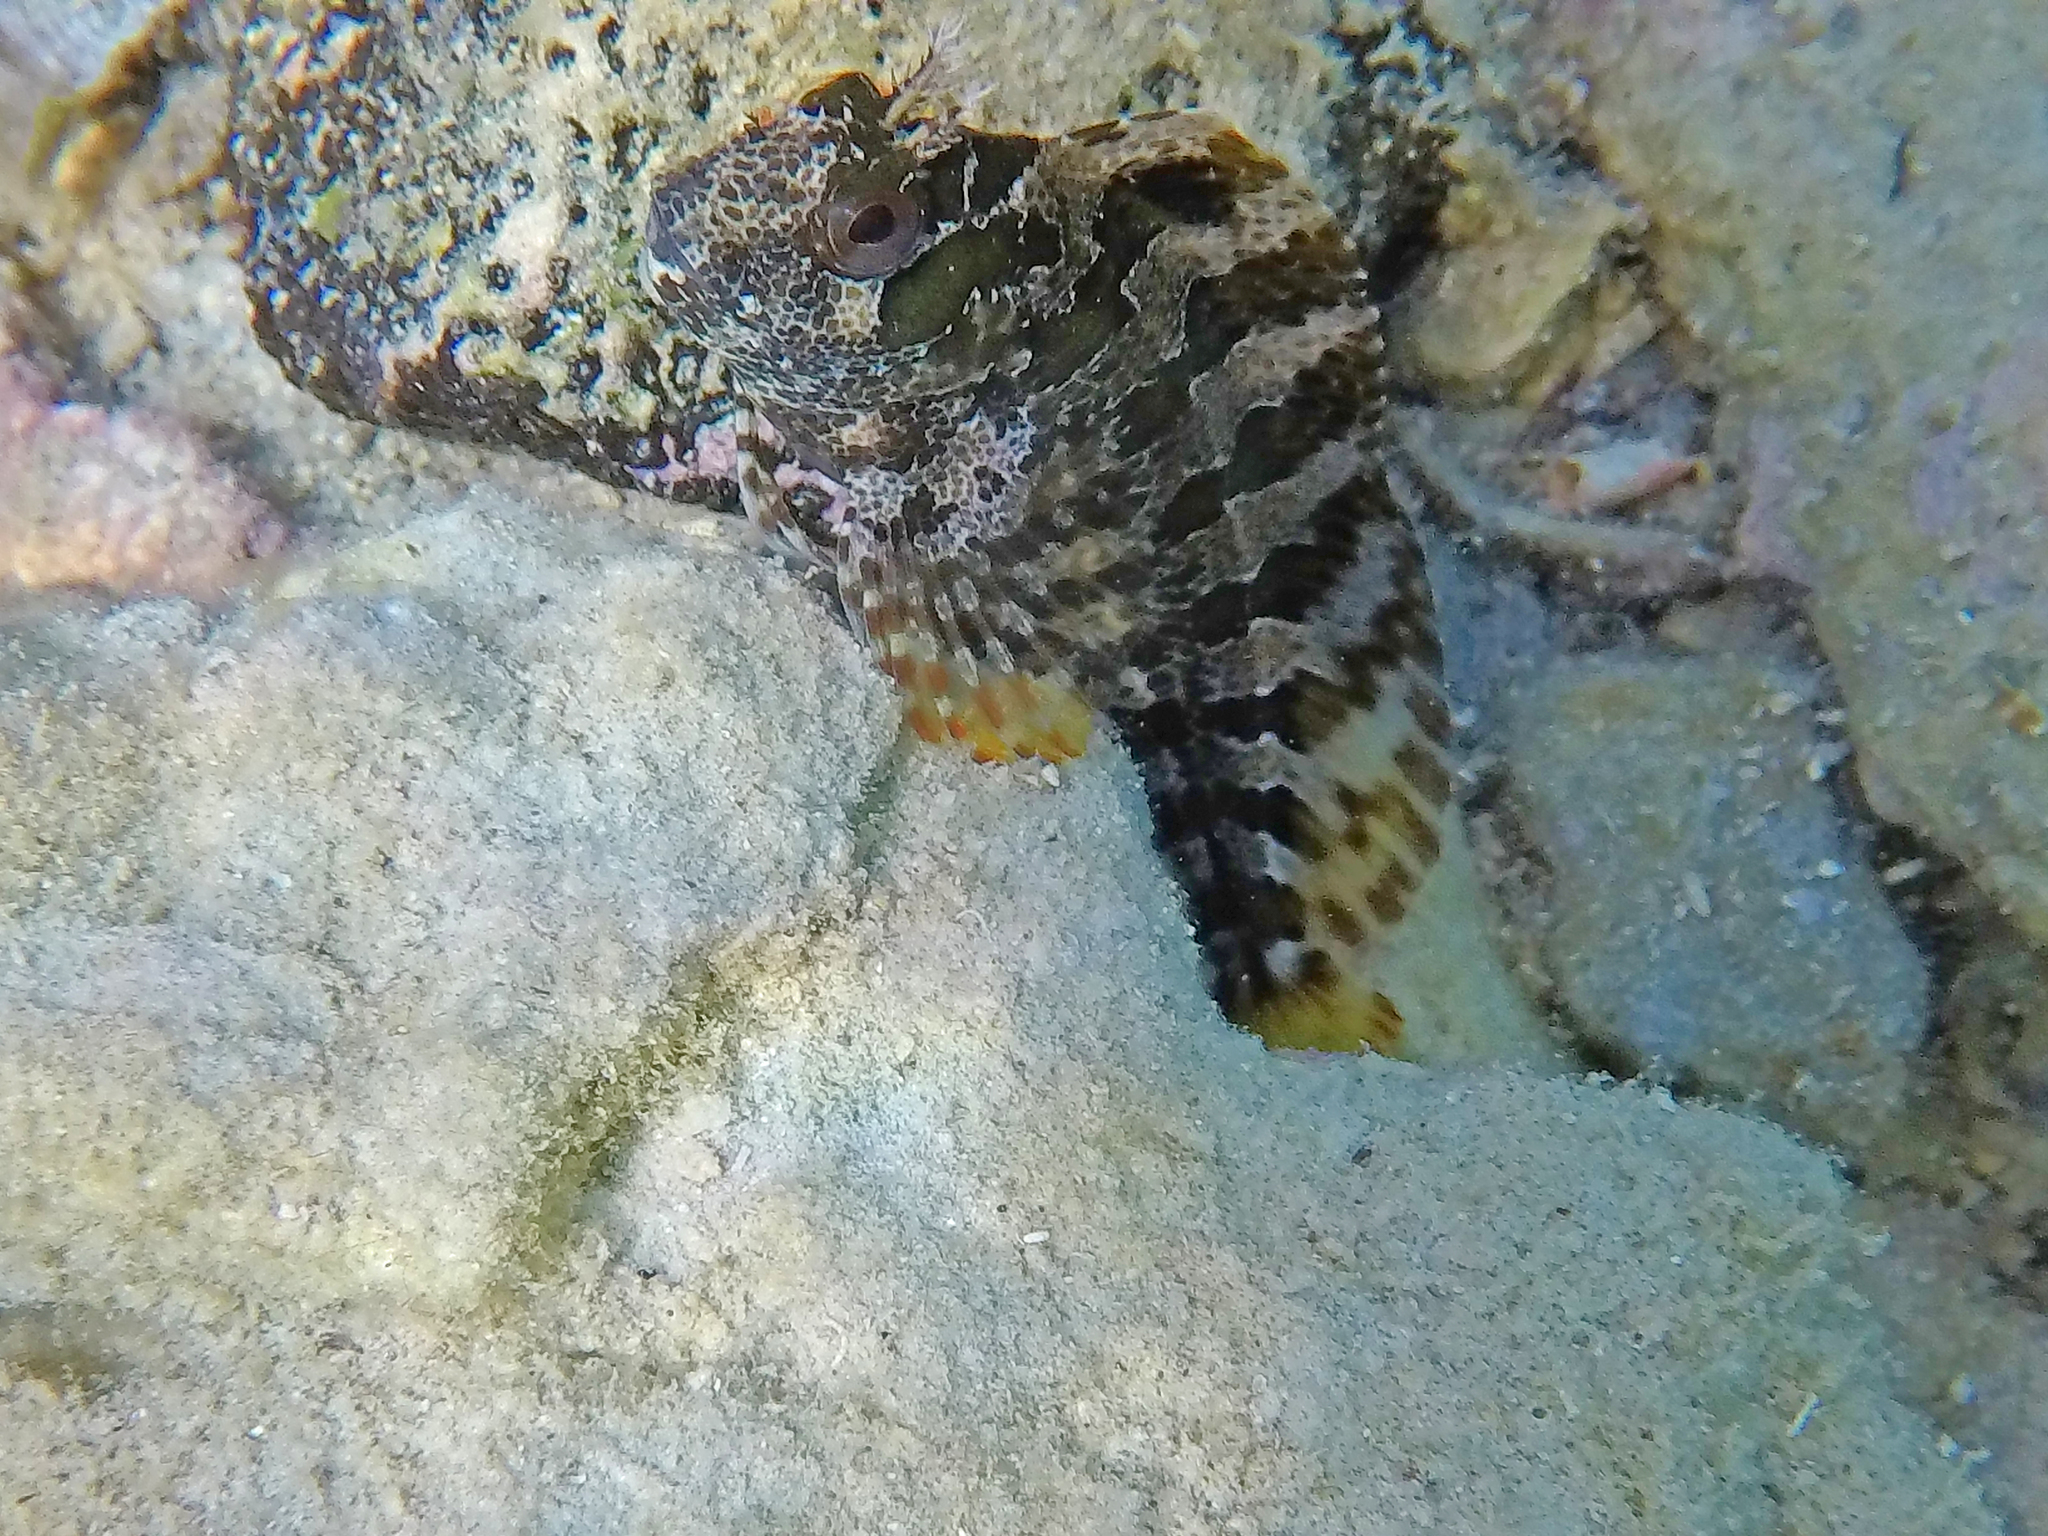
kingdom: Animalia
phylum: Chordata
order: Perciformes
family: Blenniidae
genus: Parablennius
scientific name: Parablennius gattorugine
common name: Tompot blenny
